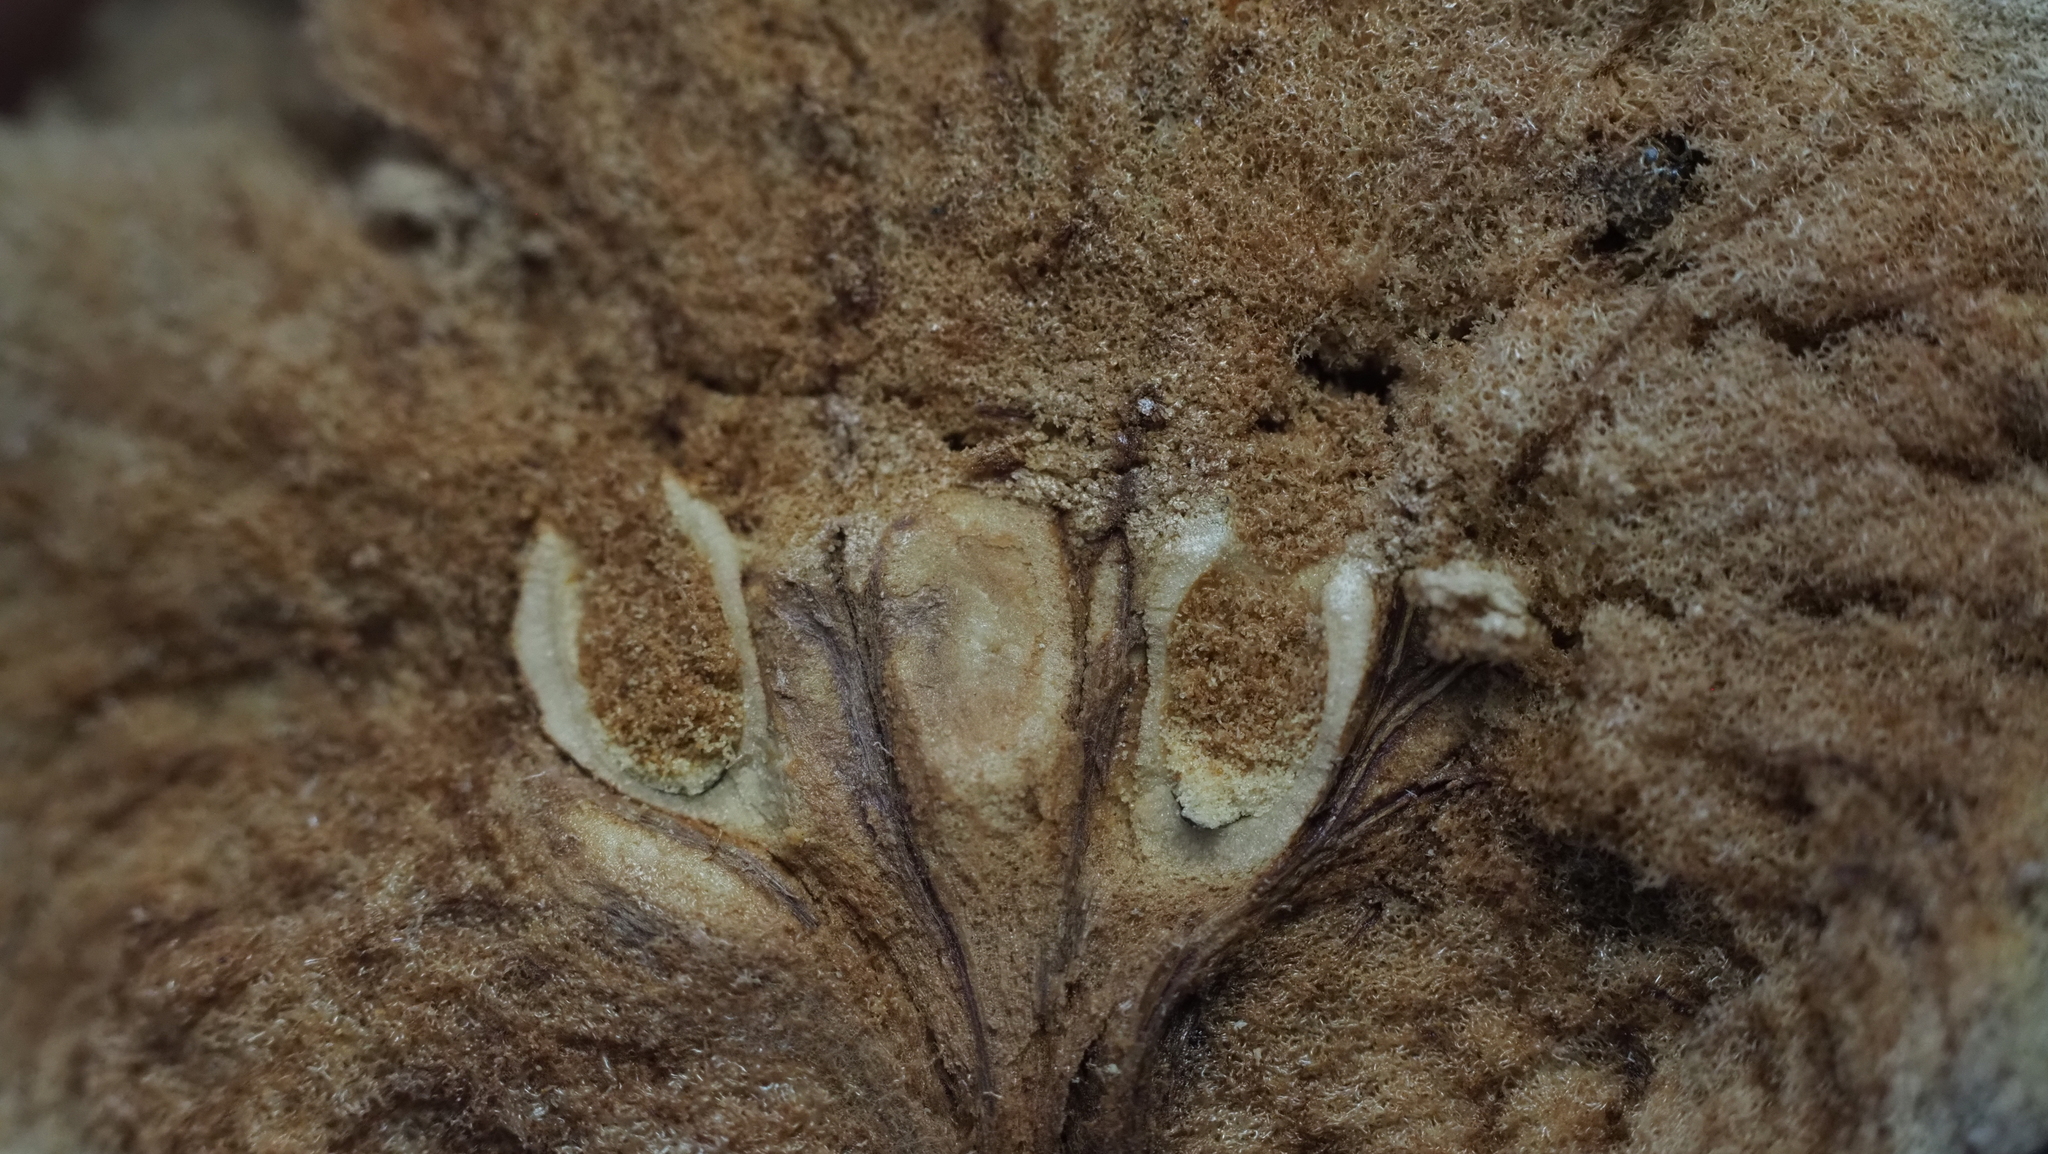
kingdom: Animalia
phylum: Arthropoda
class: Insecta
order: Hymenoptera
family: Cynipidae
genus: Amphibolips
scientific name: Amphibolips quercuspomiformis
